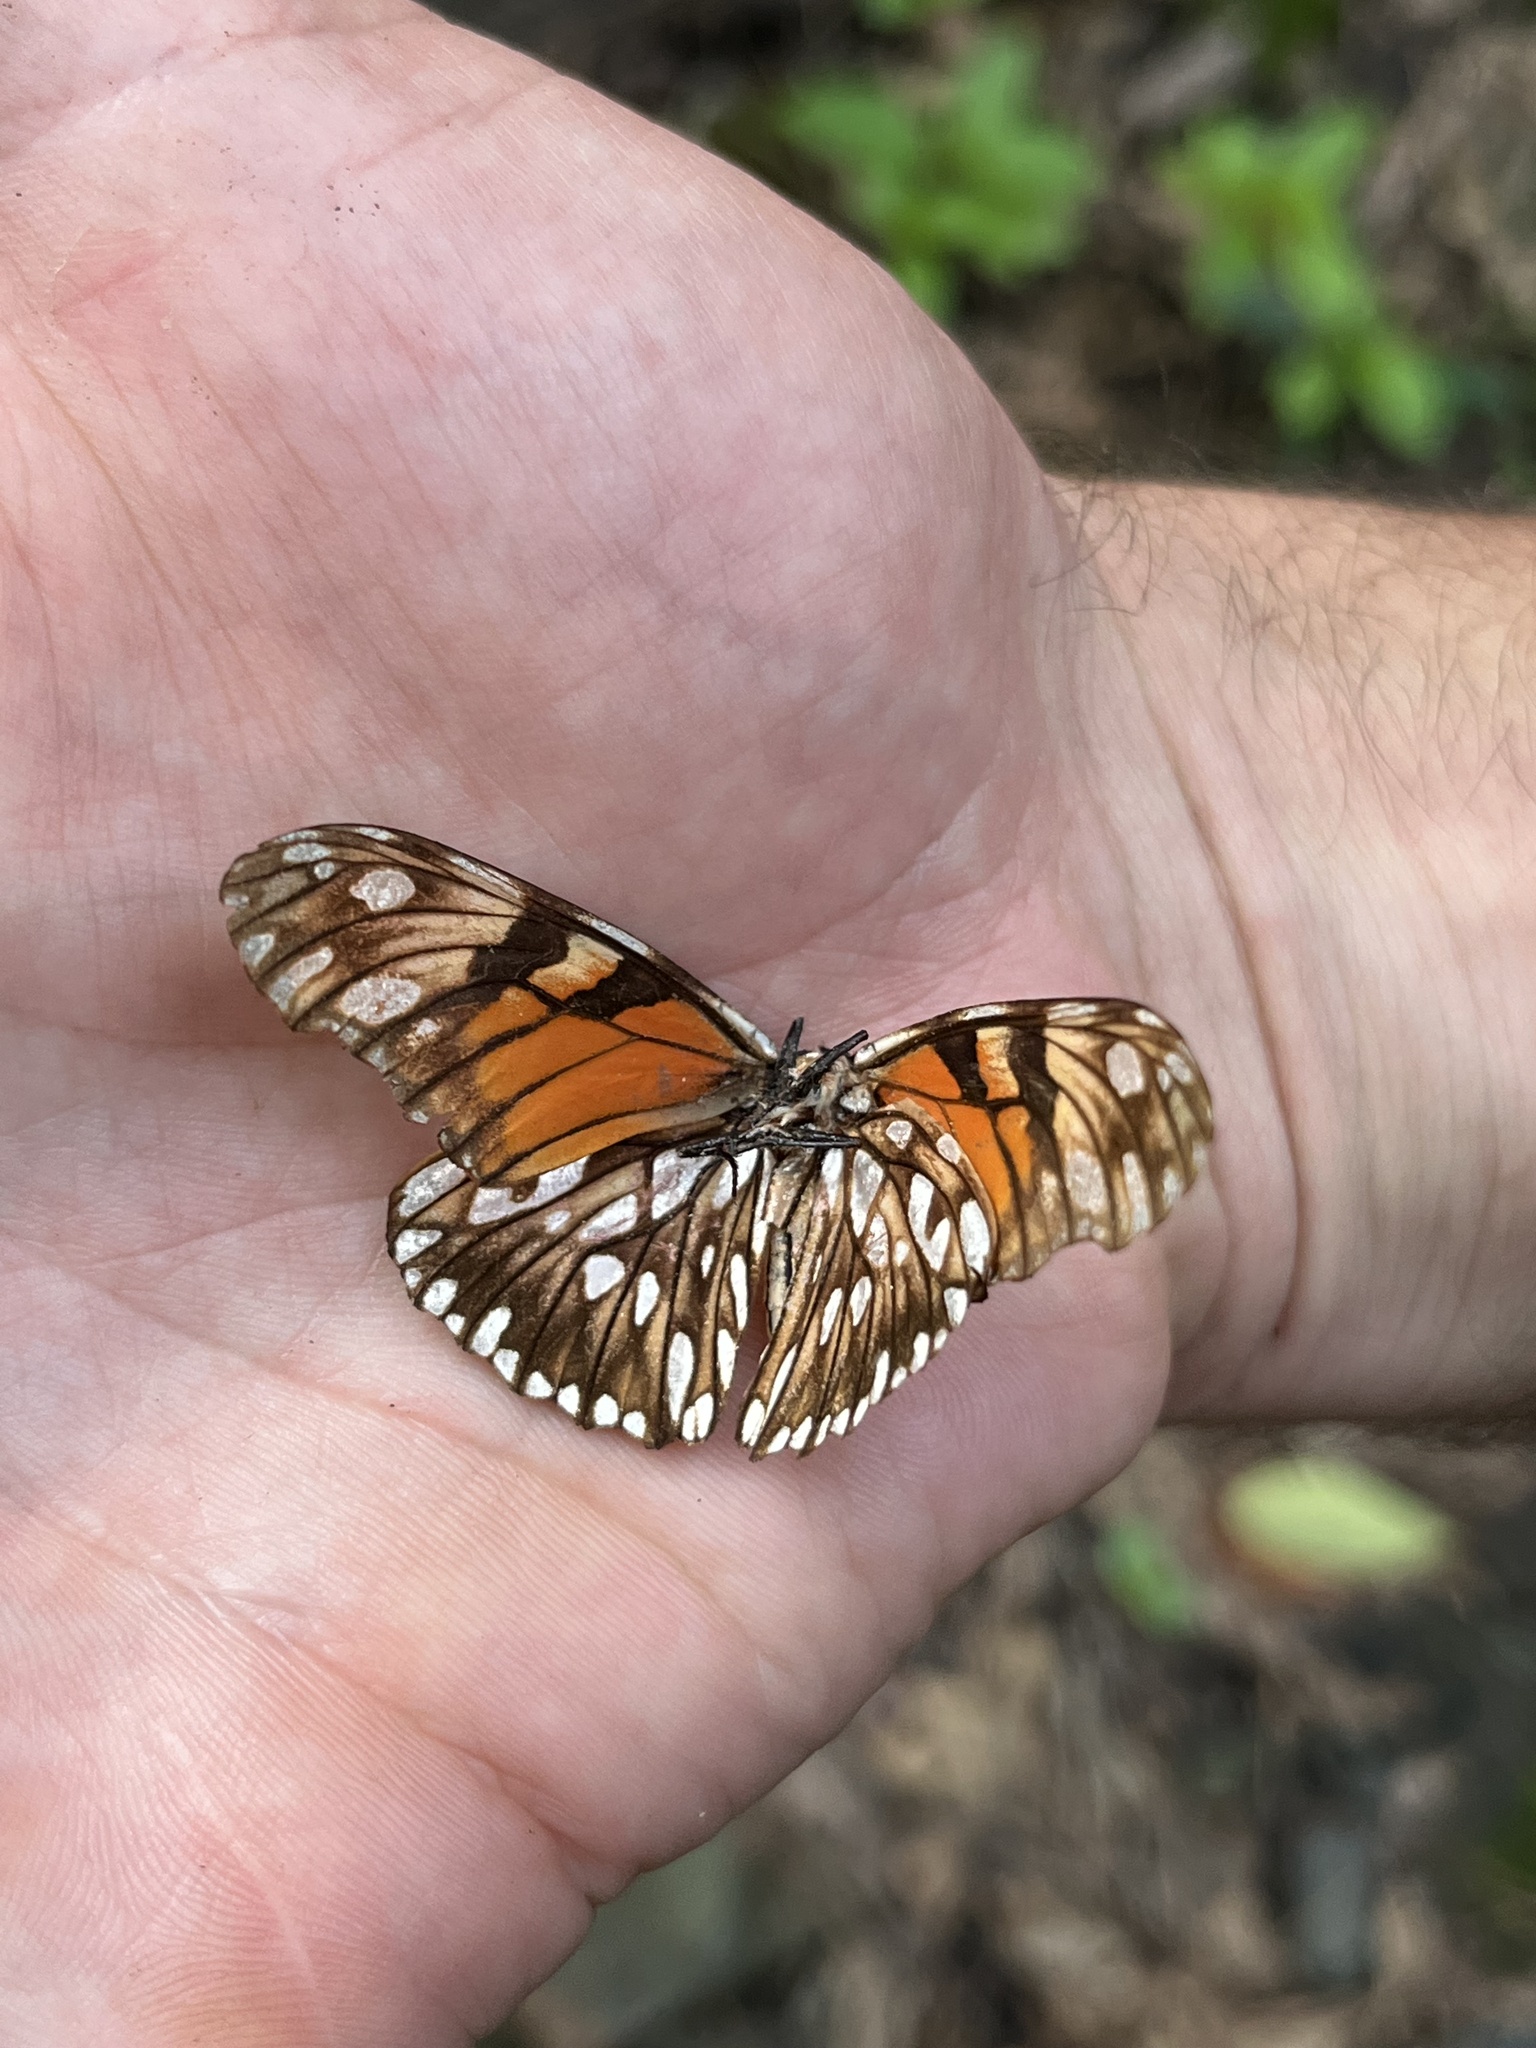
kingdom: Animalia
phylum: Arthropoda
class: Insecta
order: Lepidoptera
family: Nymphalidae
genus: Dione
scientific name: Dione juno
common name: Juno silverspot
